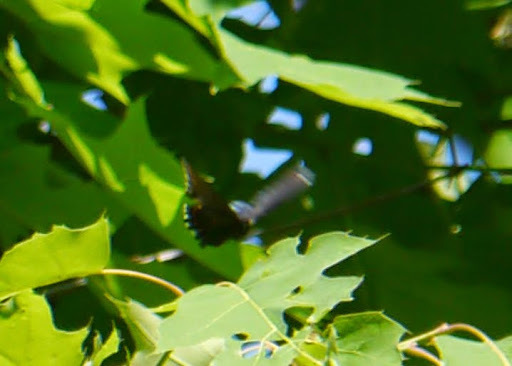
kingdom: Animalia
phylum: Arthropoda
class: Insecta
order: Lepidoptera
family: Nymphalidae
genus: Limenitis
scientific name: Limenitis astyanax
